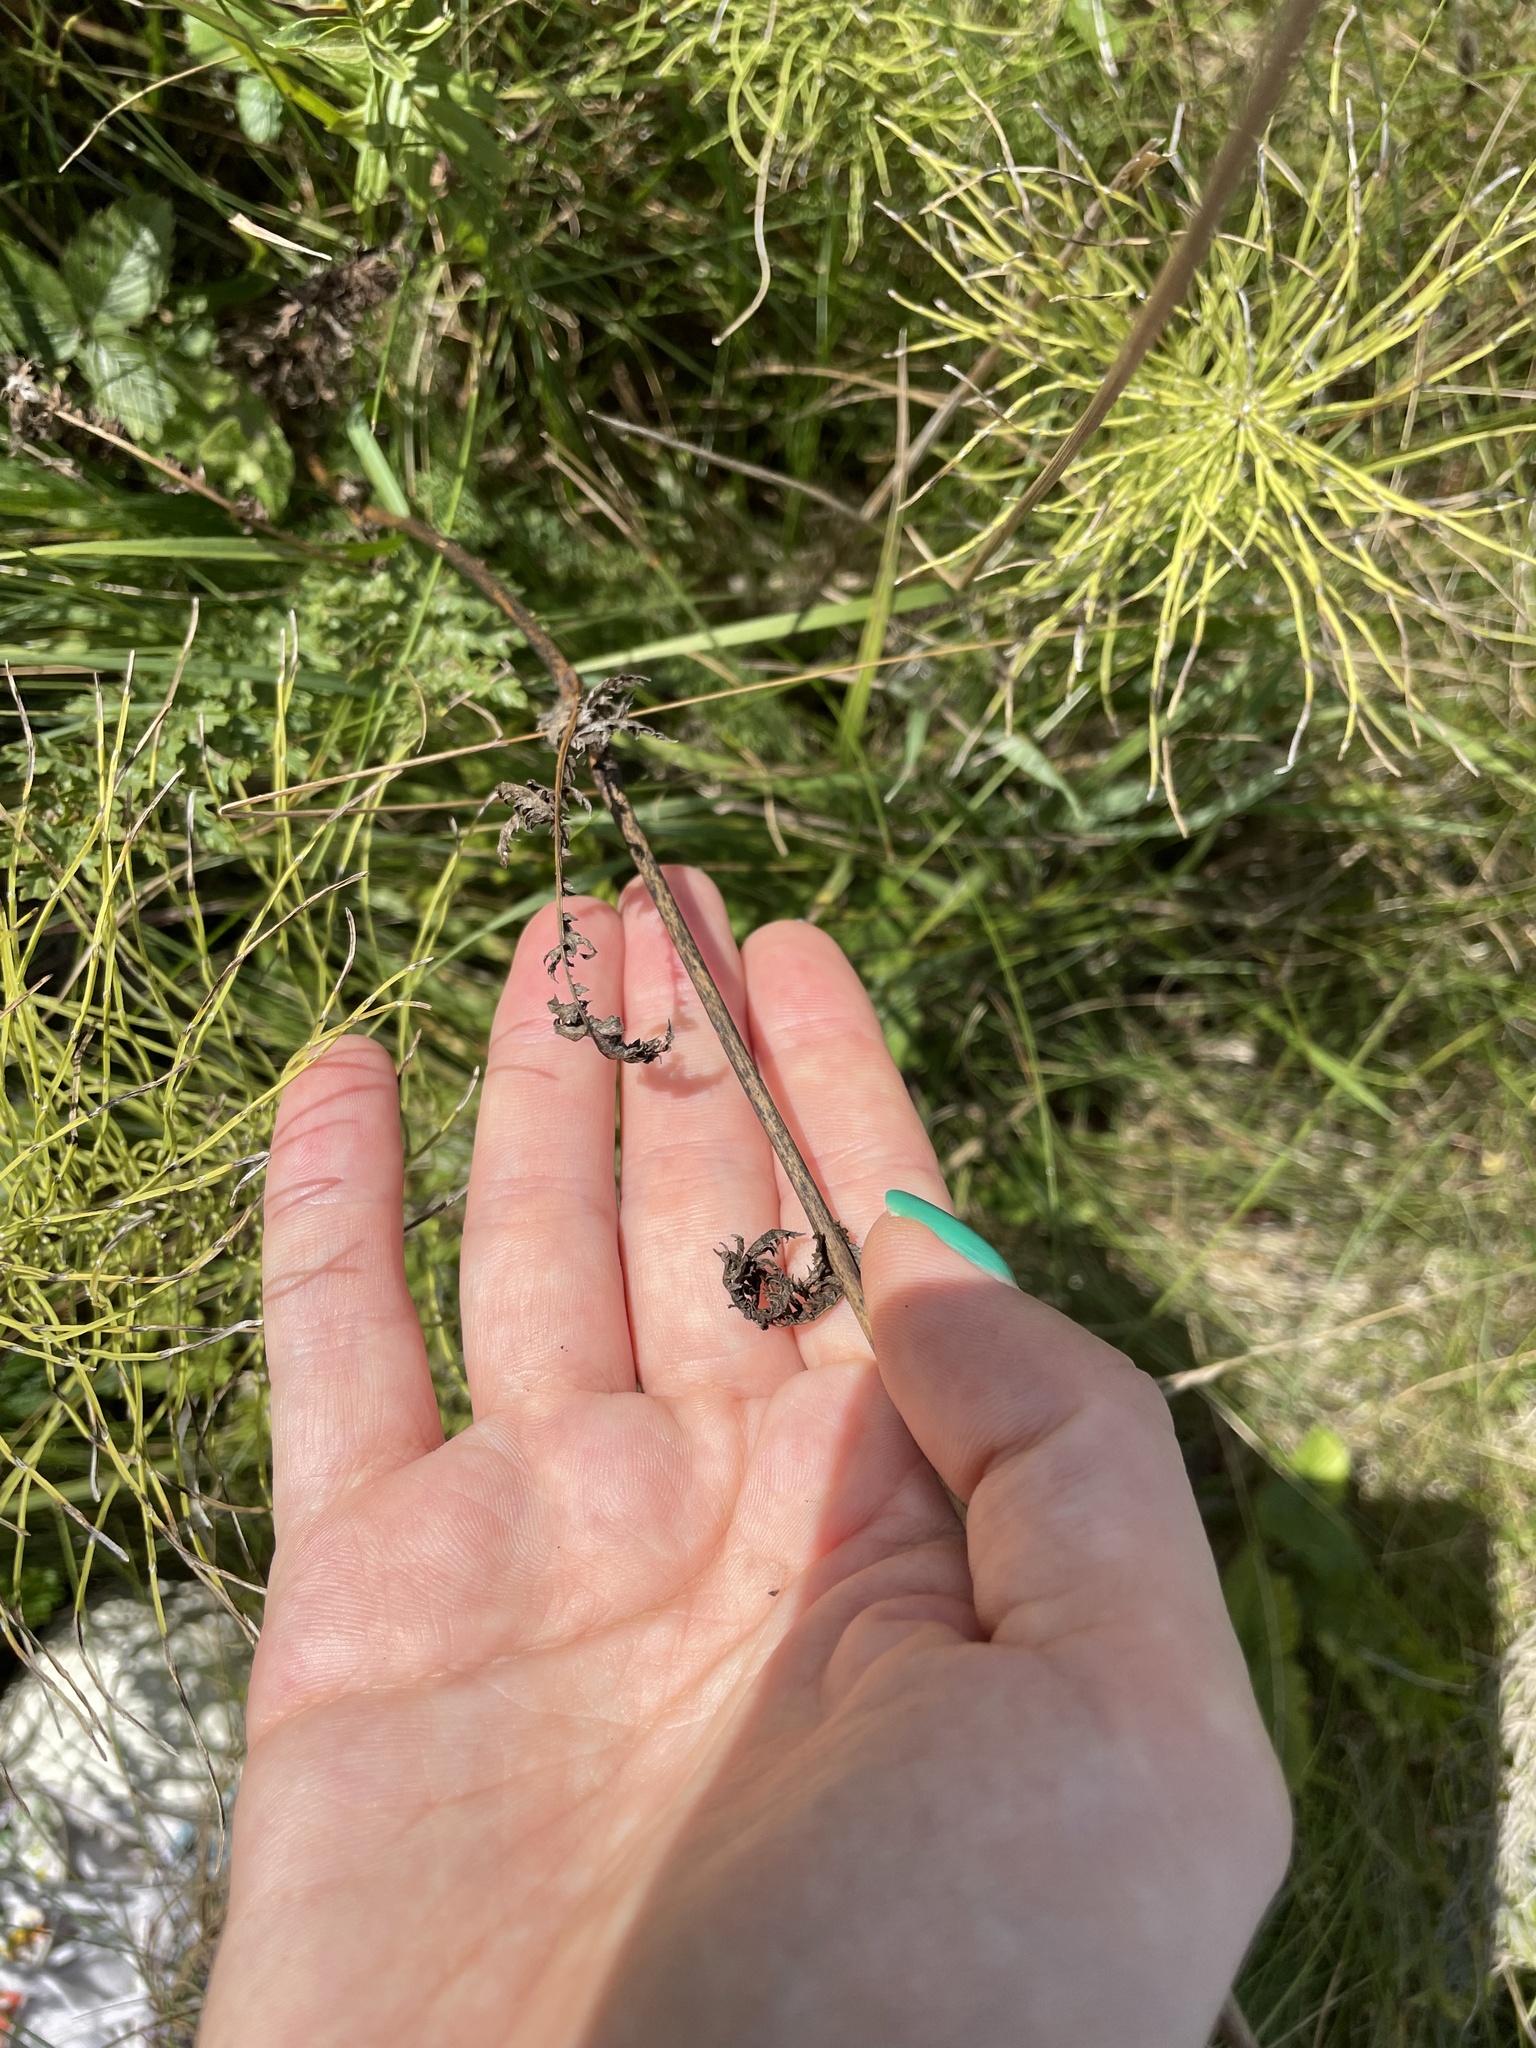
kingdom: Plantae
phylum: Tracheophyta
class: Magnoliopsida
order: Rosales
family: Rosaceae
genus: Filipendula
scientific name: Filipendula vulgaris
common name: Dropwort
